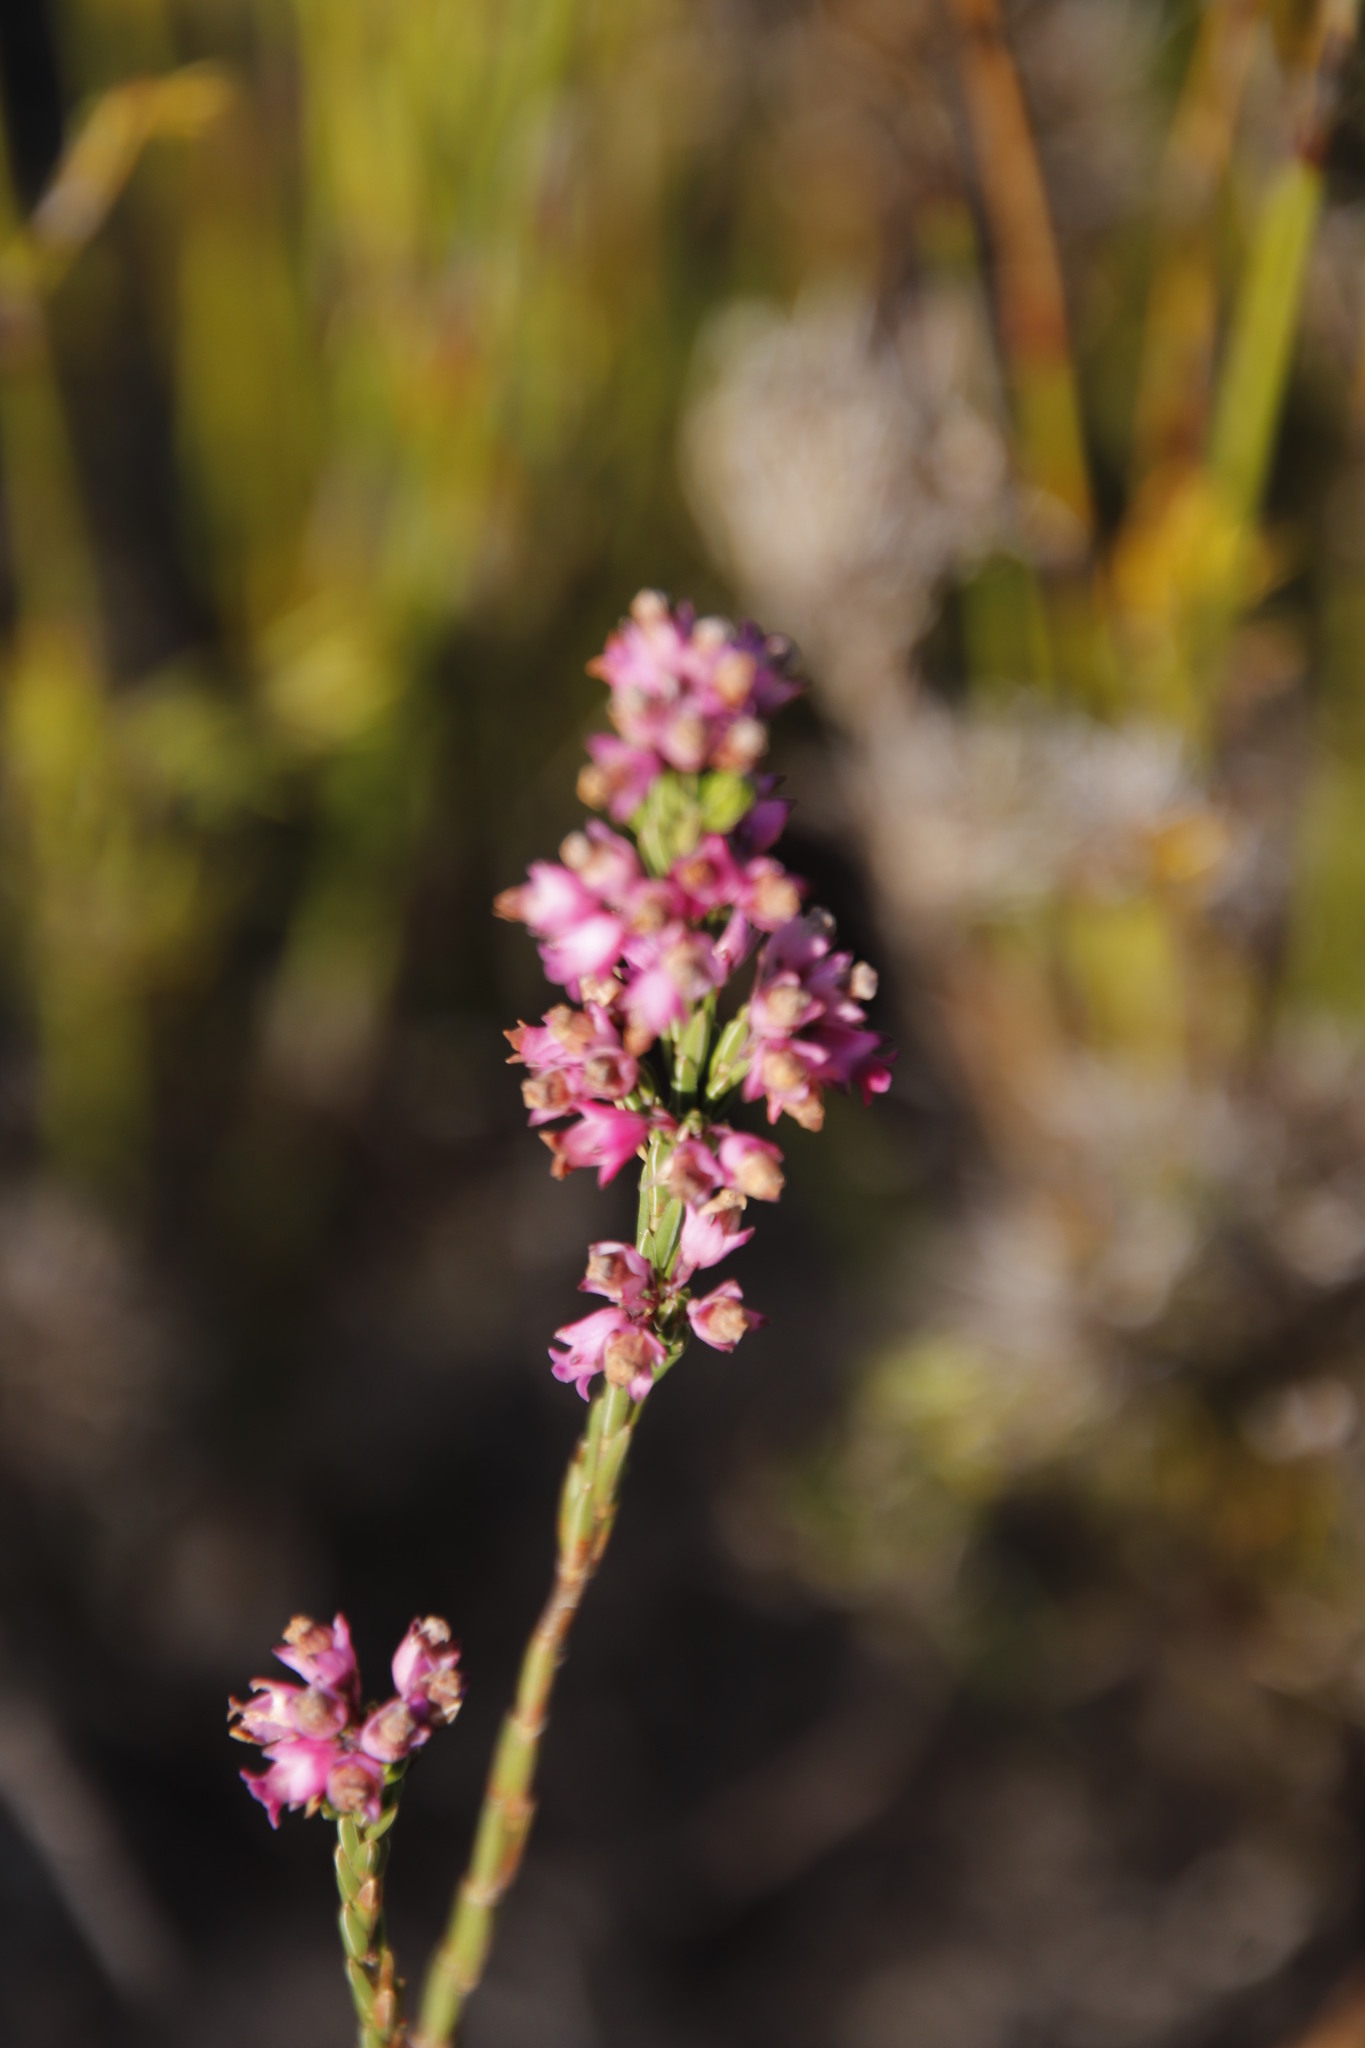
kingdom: Plantae
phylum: Tracheophyta
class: Magnoliopsida
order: Ericales
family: Ericaceae
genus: Erica
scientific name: Erica corifolia
